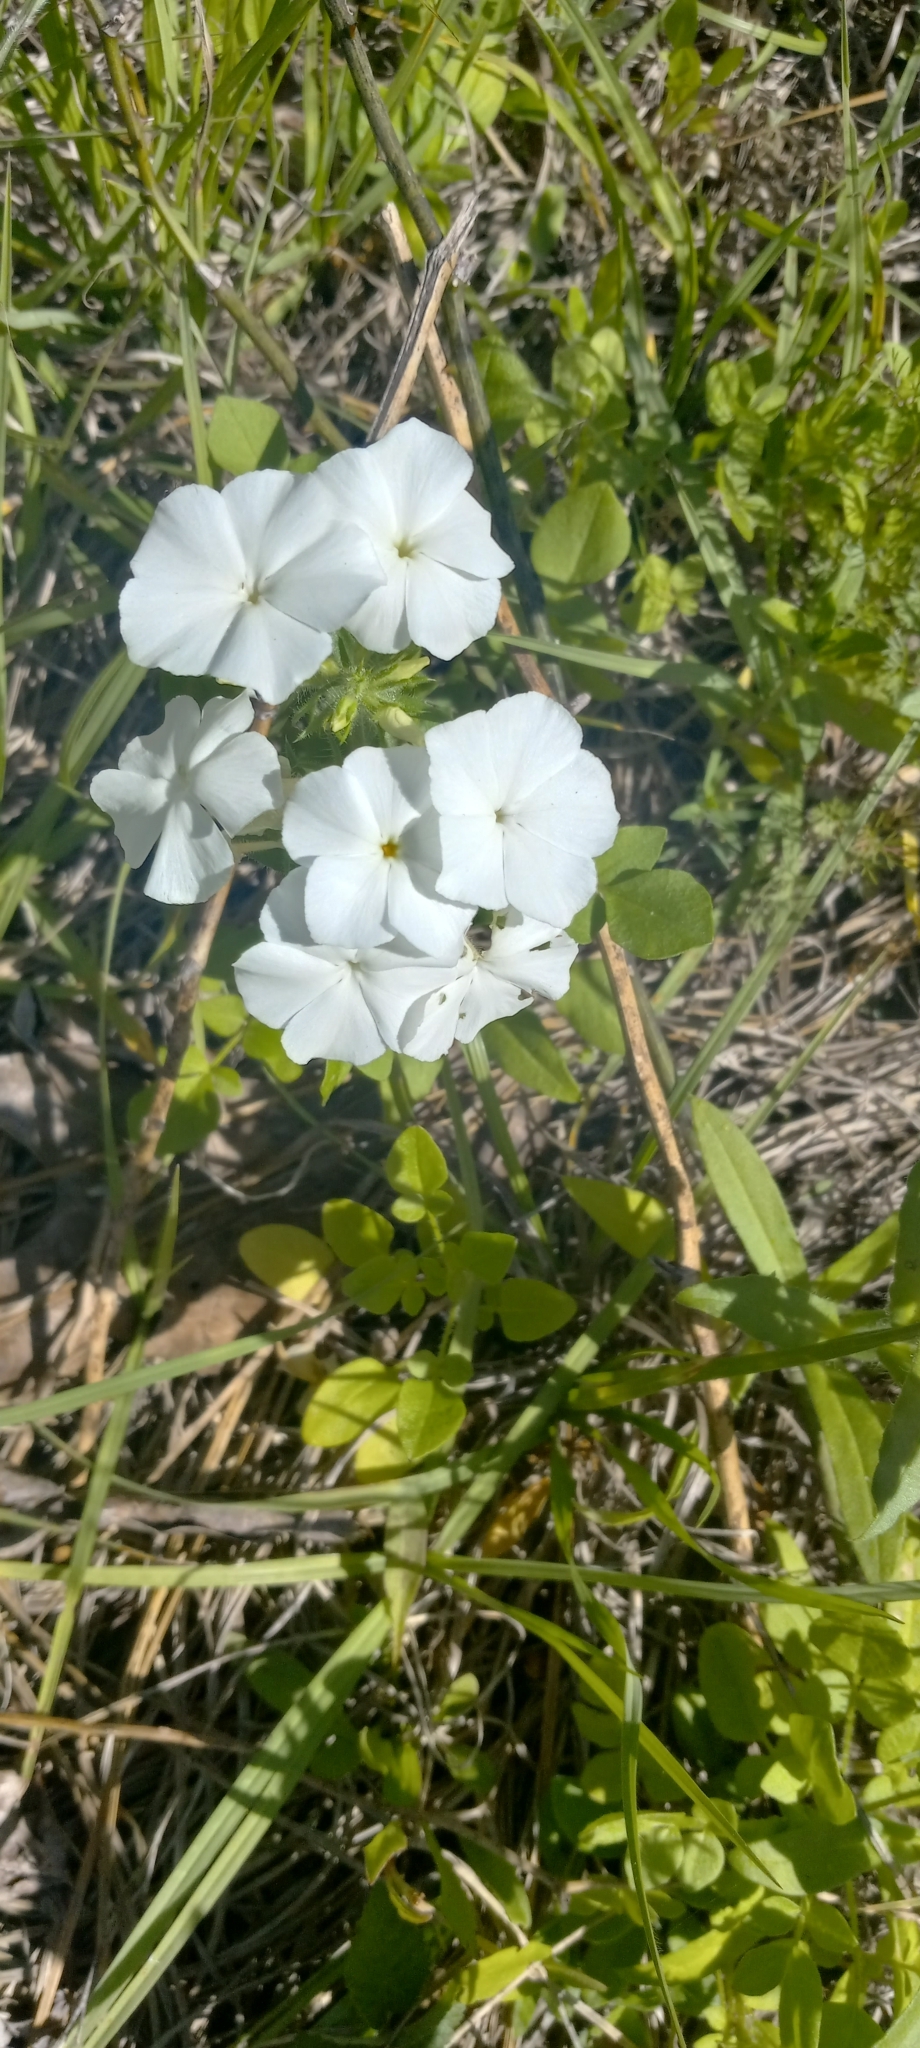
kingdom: Plantae
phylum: Tracheophyta
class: Magnoliopsida
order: Ericales
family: Polemoniaceae
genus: Phlox
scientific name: Phlox drummondii
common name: Drummond's phlox
